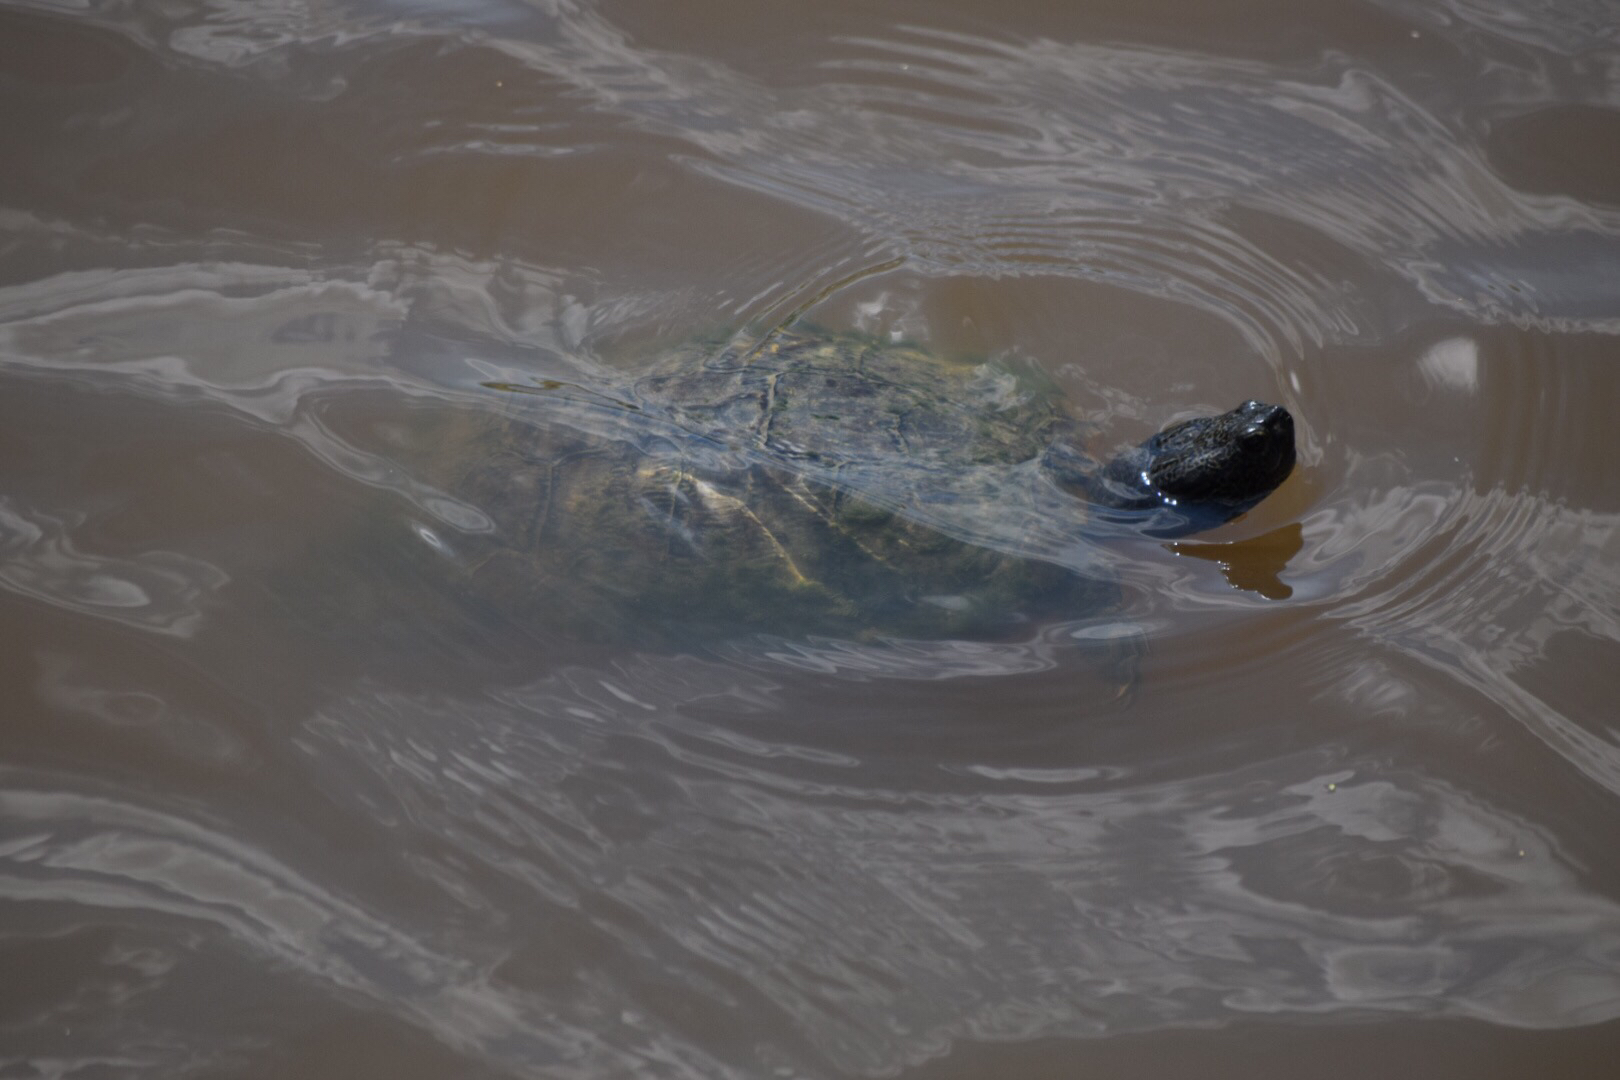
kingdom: Animalia
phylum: Chordata
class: Testudines
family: Emydidae
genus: Trachemys
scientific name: Trachemys scripta
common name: Slider
